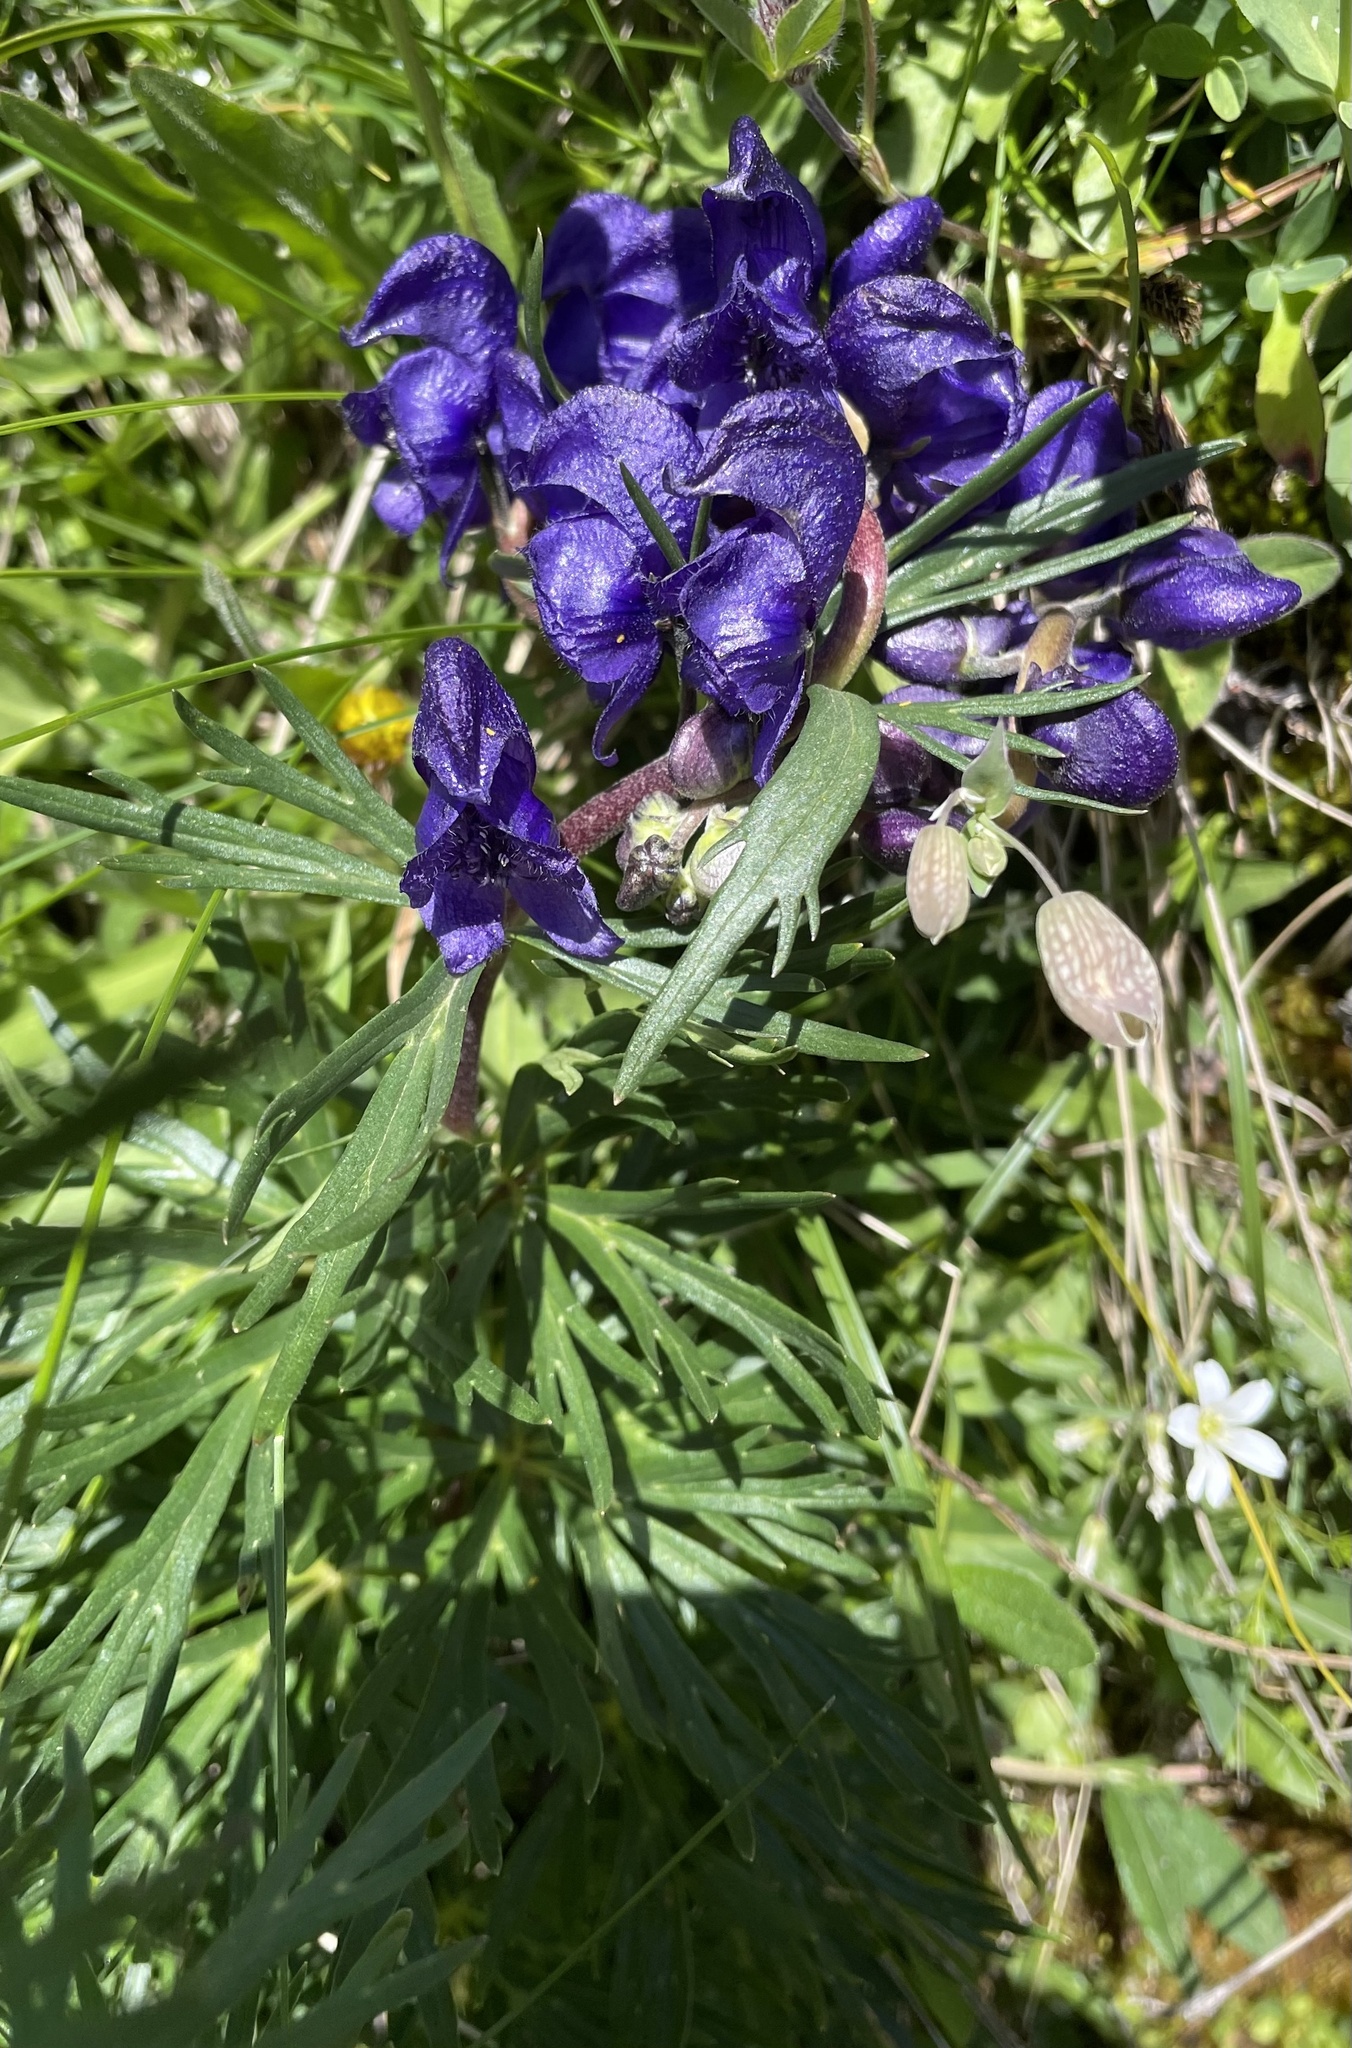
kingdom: Plantae
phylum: Tracheophyta
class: Magnoliopsida
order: Ranunculales
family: Ranunculaceae
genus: Aconitum
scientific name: Aconitum napellus
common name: Garden monkshood
